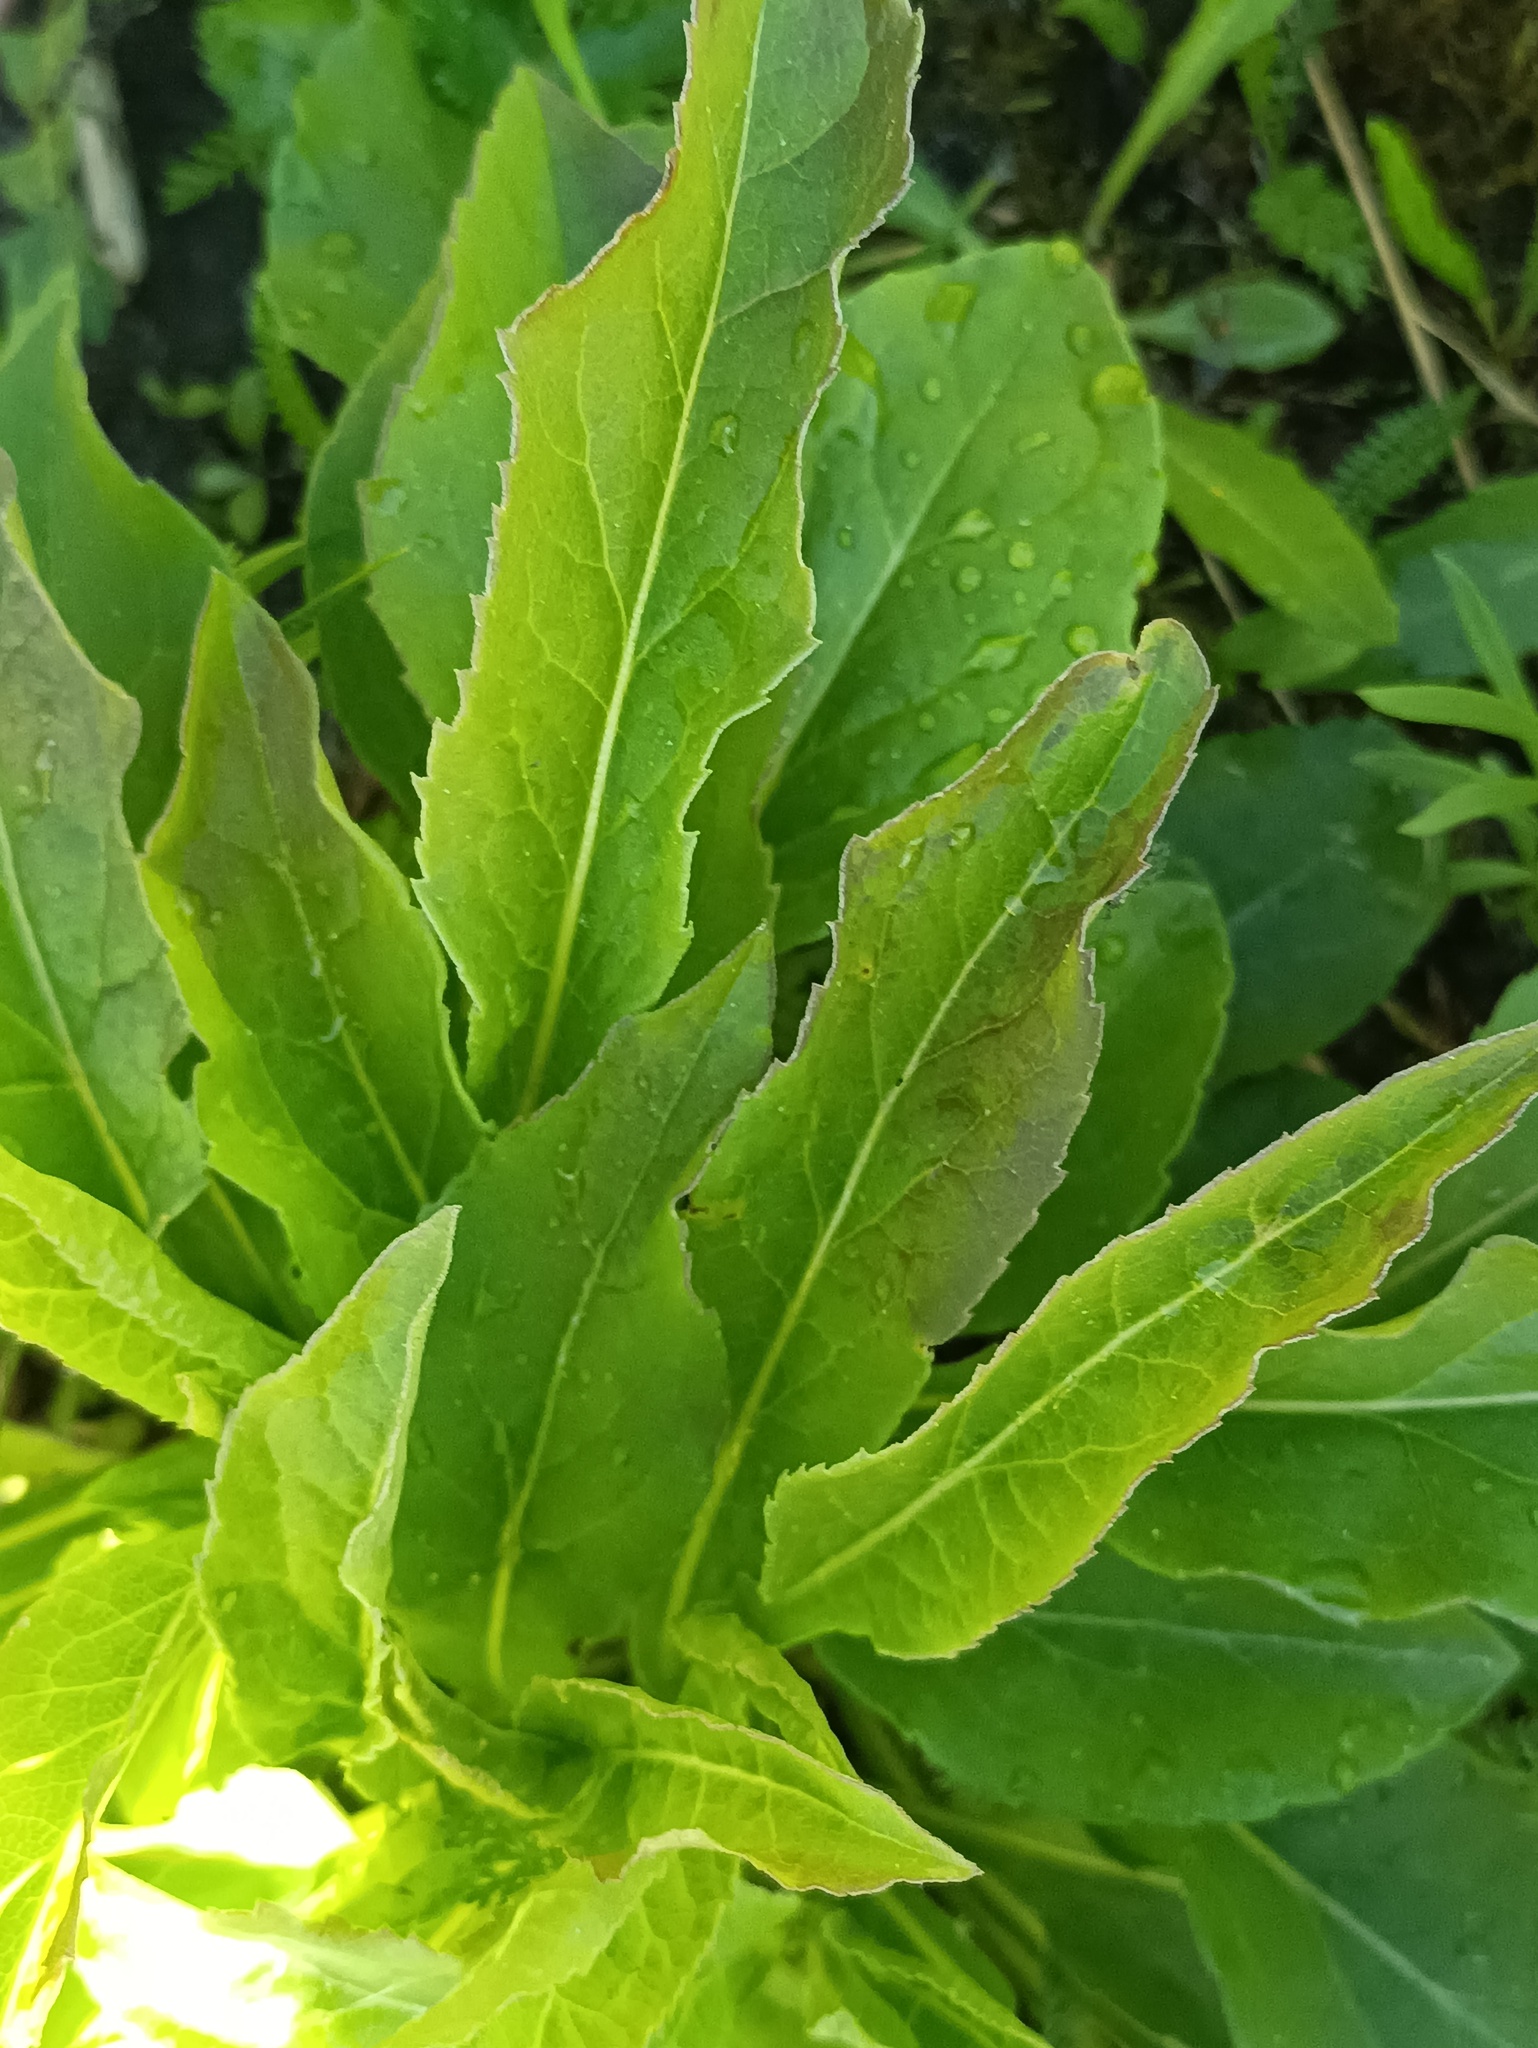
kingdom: Plantae
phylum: Tracheophyta
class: Magnoliopsida
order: Asterales
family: Asteraceae
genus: Solidago
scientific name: Solidago virgaurea
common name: Goldenrod
